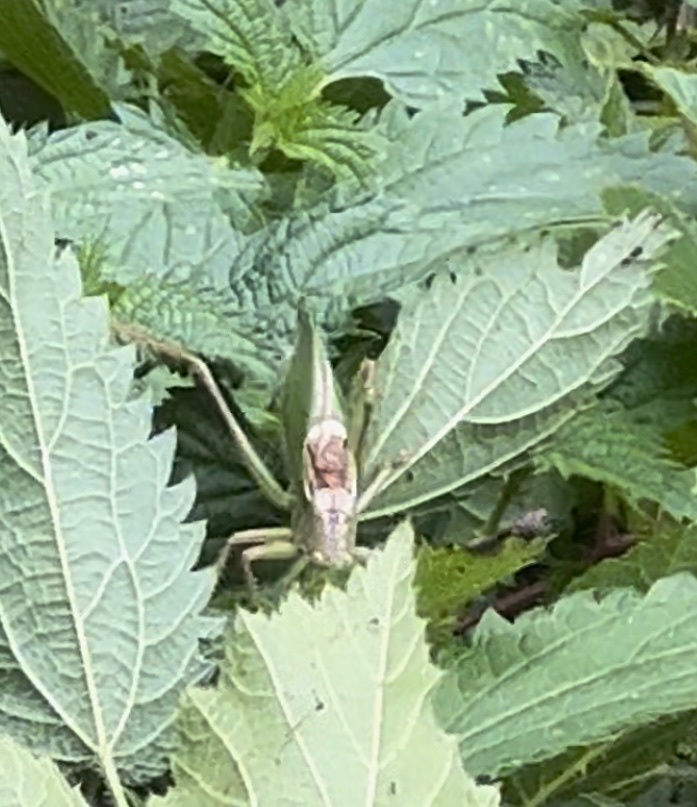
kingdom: Animalia
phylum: Arthropoda
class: Insecta
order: Orthoptera
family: Tettigoniidae
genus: Tettigonia
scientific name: Tettigonia cantans
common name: Upland green bush-cricket
